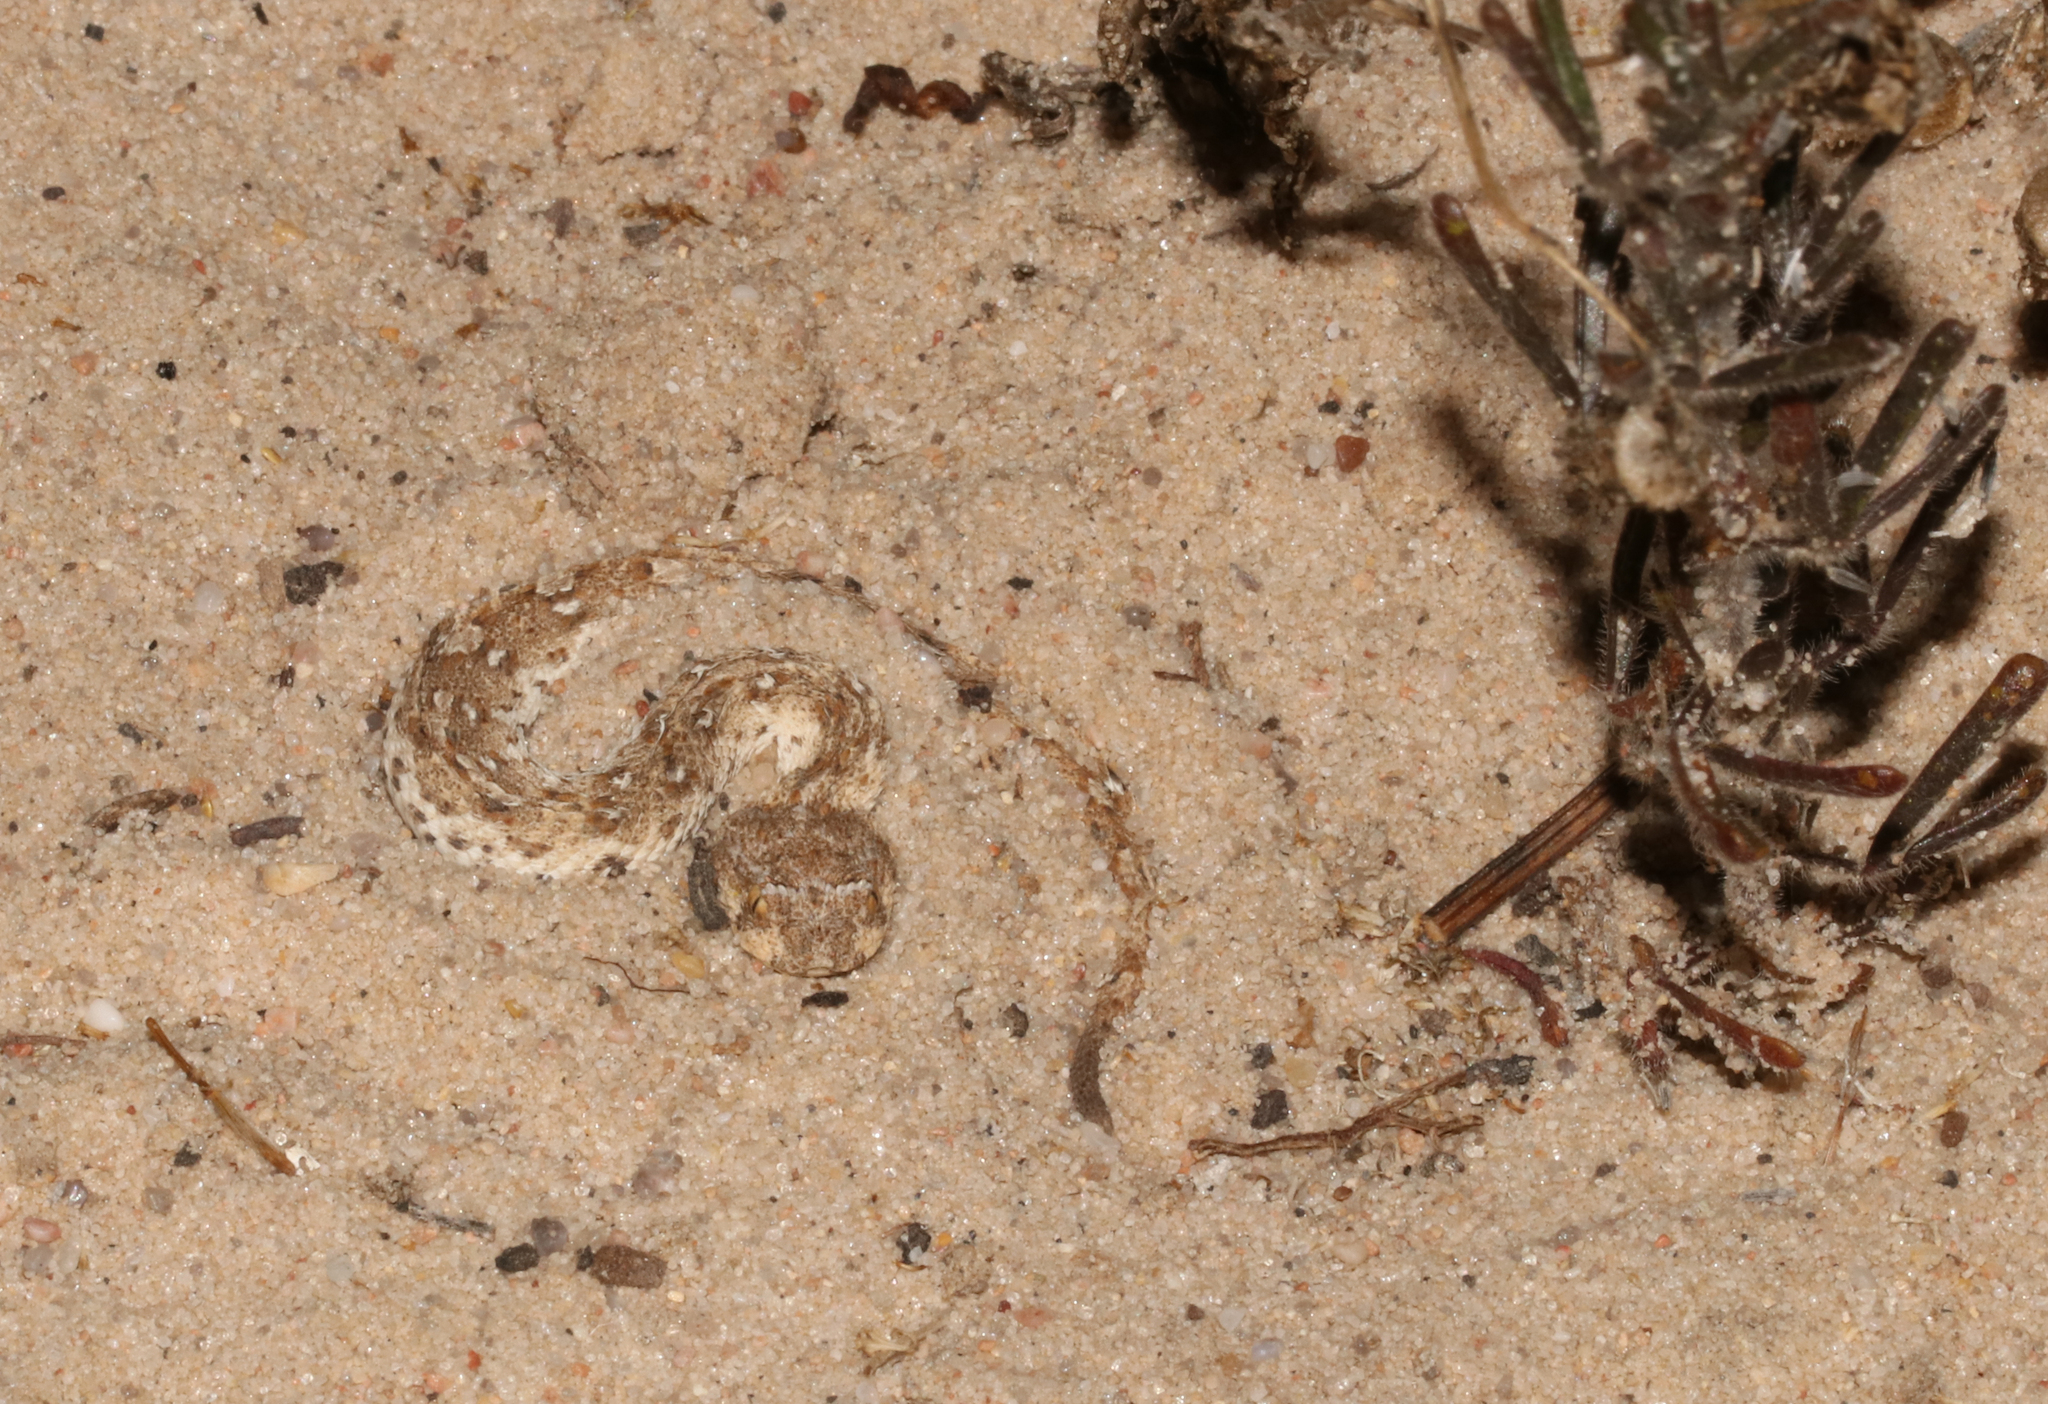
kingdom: Animalia
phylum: Chordata
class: Squamata
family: Viperidae
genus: Bitis
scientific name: Bitis schneideri
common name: Namaqua dwarf adder
